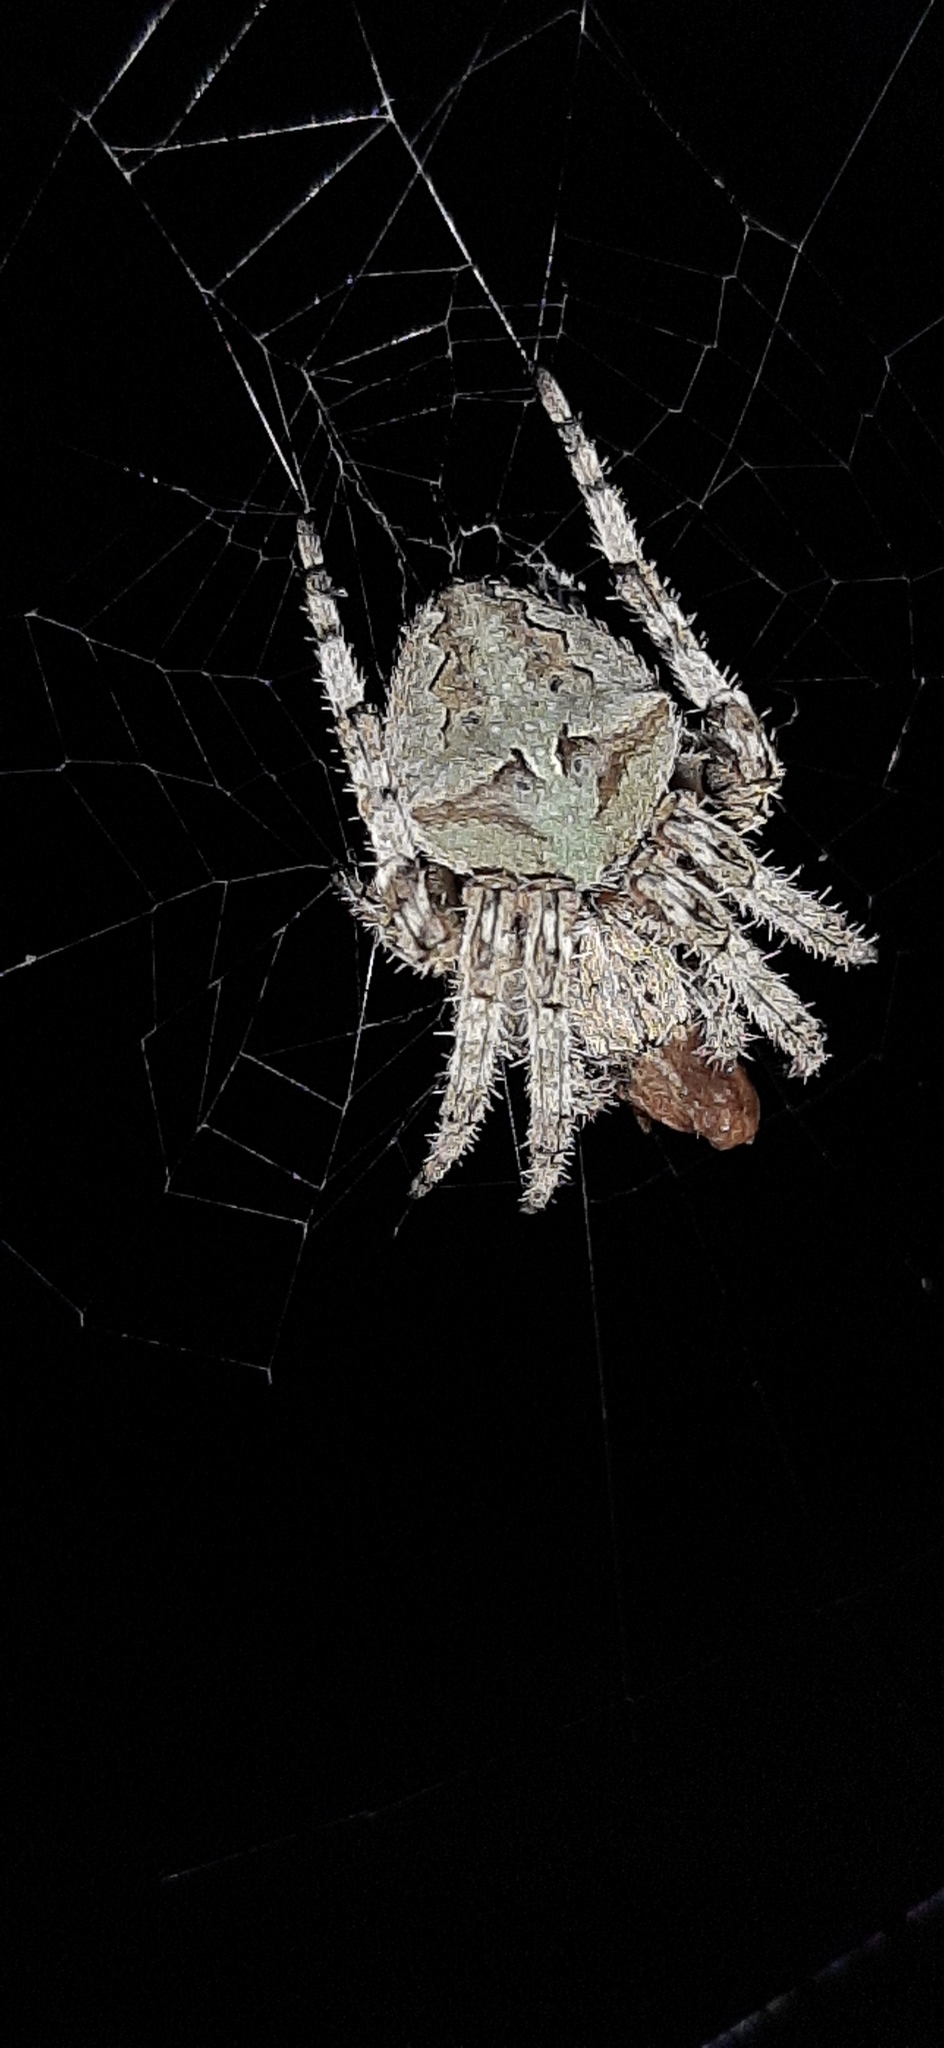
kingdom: Animalia
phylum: Arthropoda
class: Arachnida
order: Araneae
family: Araneidae
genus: Araneus
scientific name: Araneus angulatus
